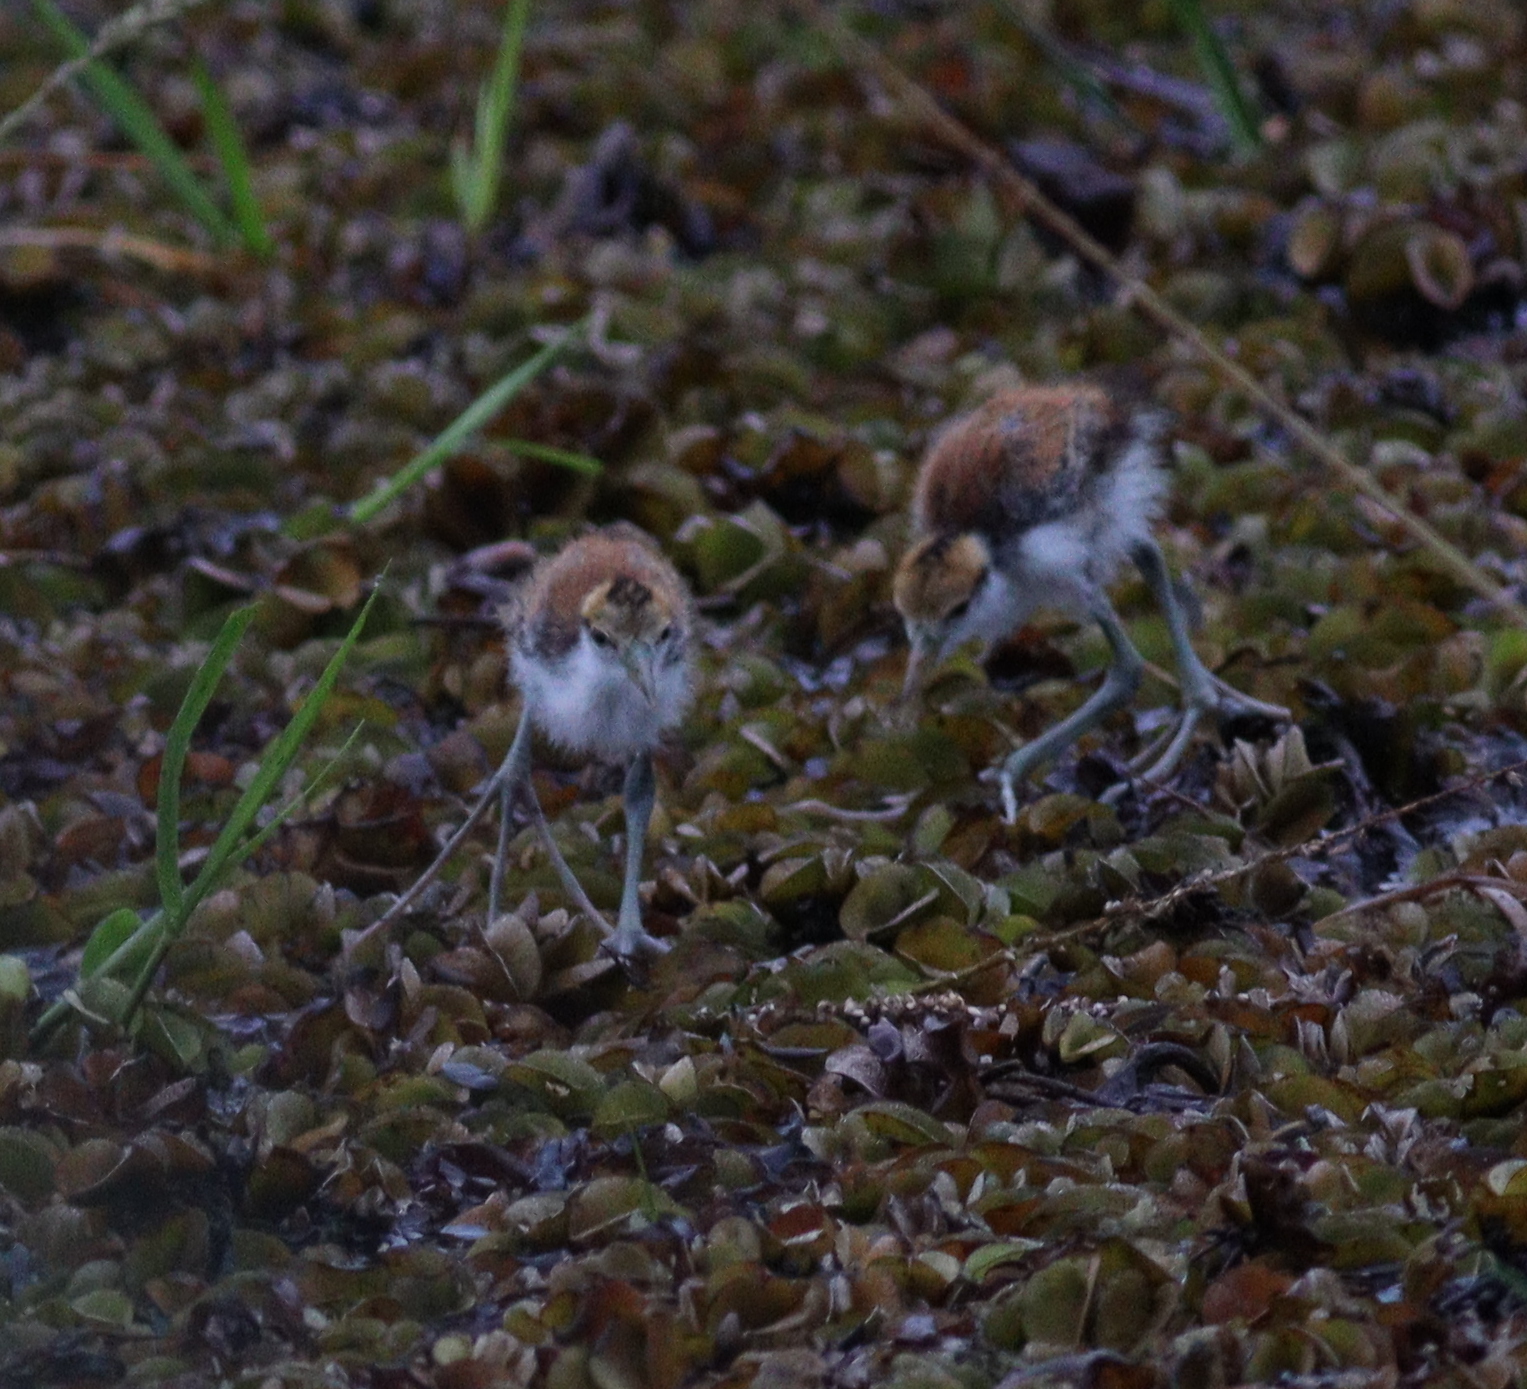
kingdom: Animalia
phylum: Chordata
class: Aves
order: Charadriiformes
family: Jacanidae
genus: Jacana
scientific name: Jacana jacana
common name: Wattled jacana
